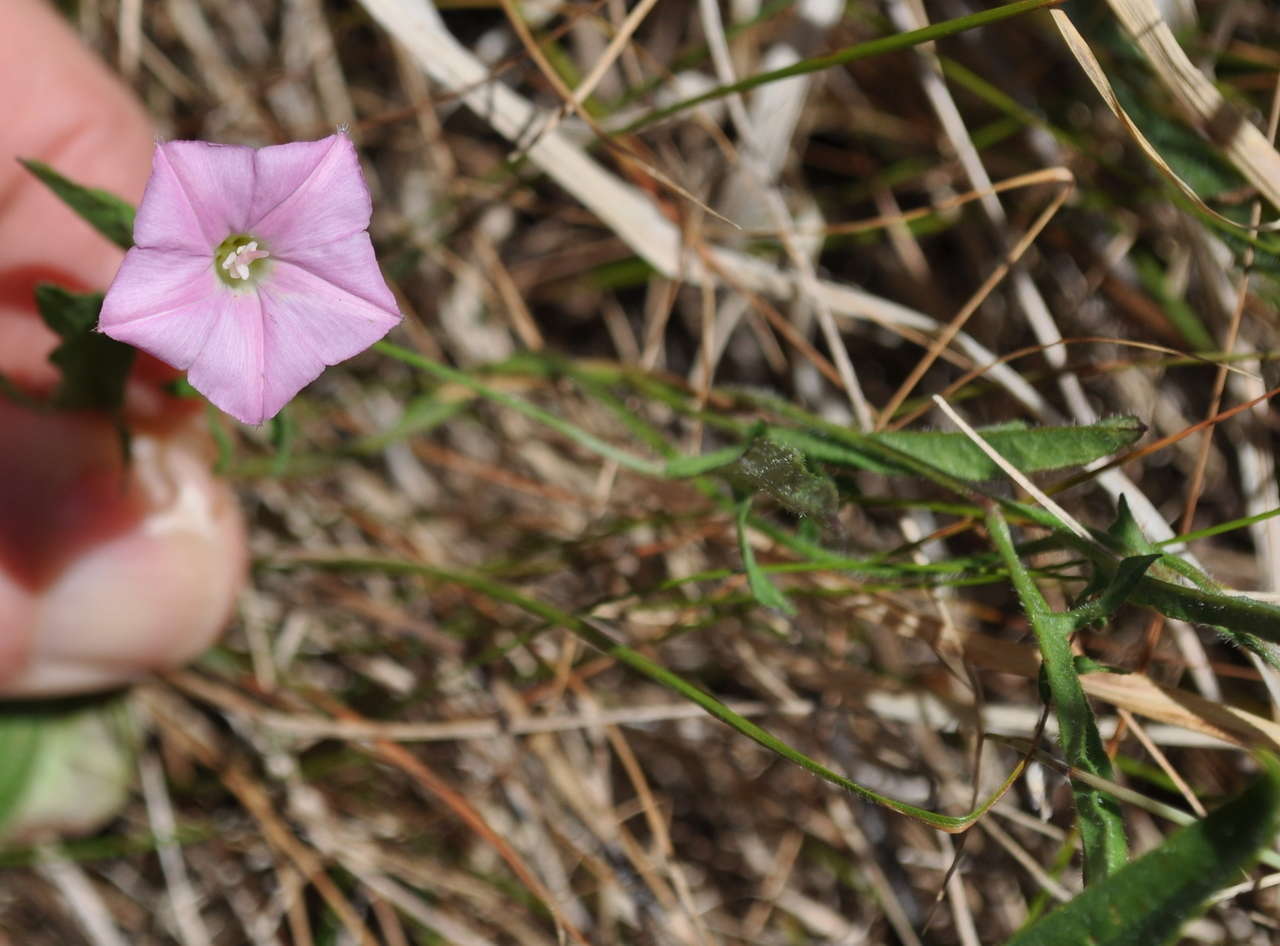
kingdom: Plantae
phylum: Tracheophyta
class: Magnoliopsida
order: Solanales
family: Convolvulaceae
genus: Convolvulus
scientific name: Convolvulus angustissimus
